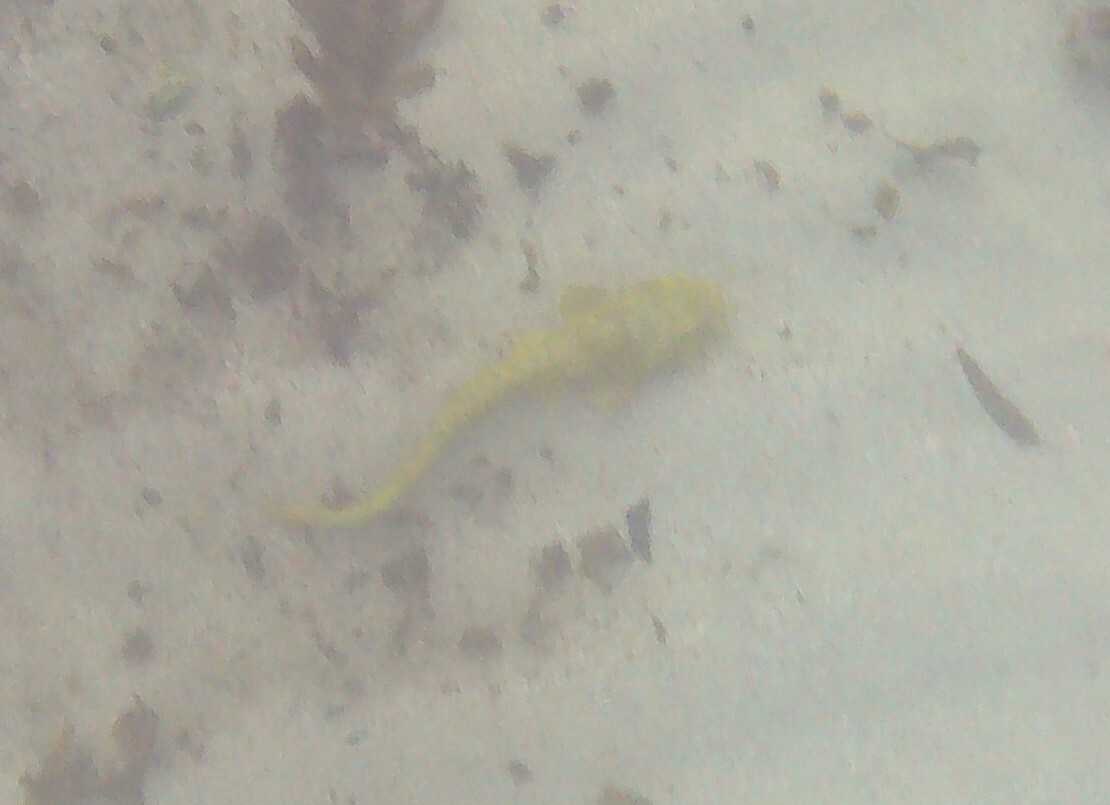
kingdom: Animalia
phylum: Chordata
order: Siluriformes
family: Plotosidae
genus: Cnidoglanis
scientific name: Cnidoglanis macrocephalus
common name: Cobbler
